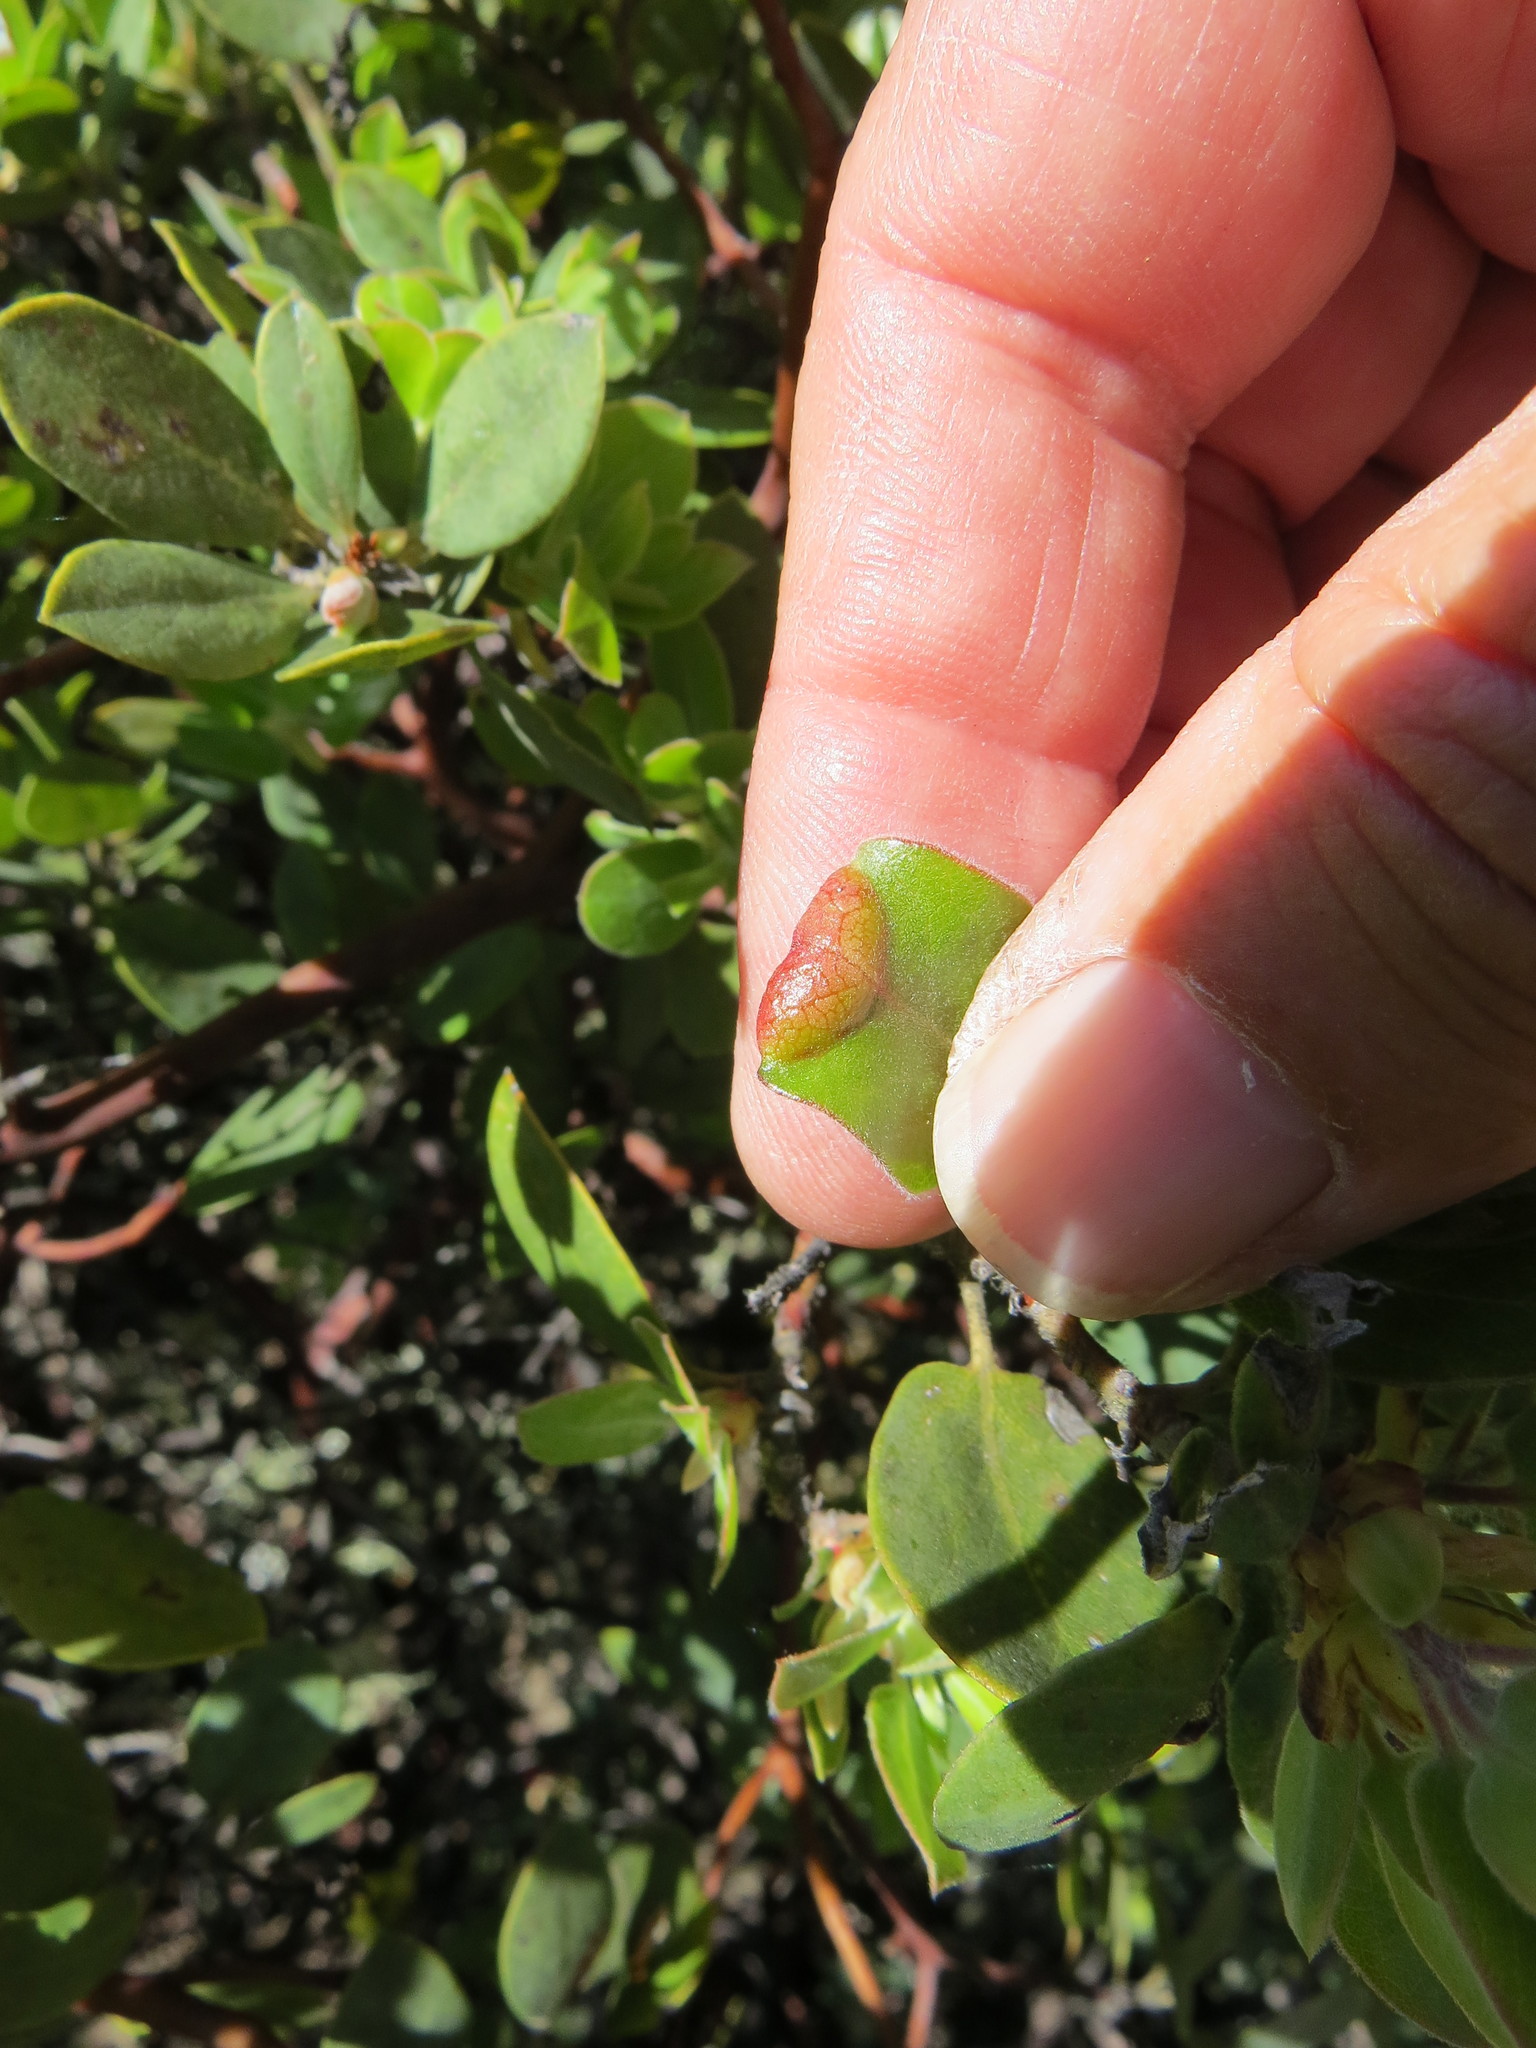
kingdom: Animalia
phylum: Arthropoda
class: Insecta
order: Hemiptera
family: Aphididae
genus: Tamalia
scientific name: Tamalia coweni
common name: Manzanita leafgall aphid
